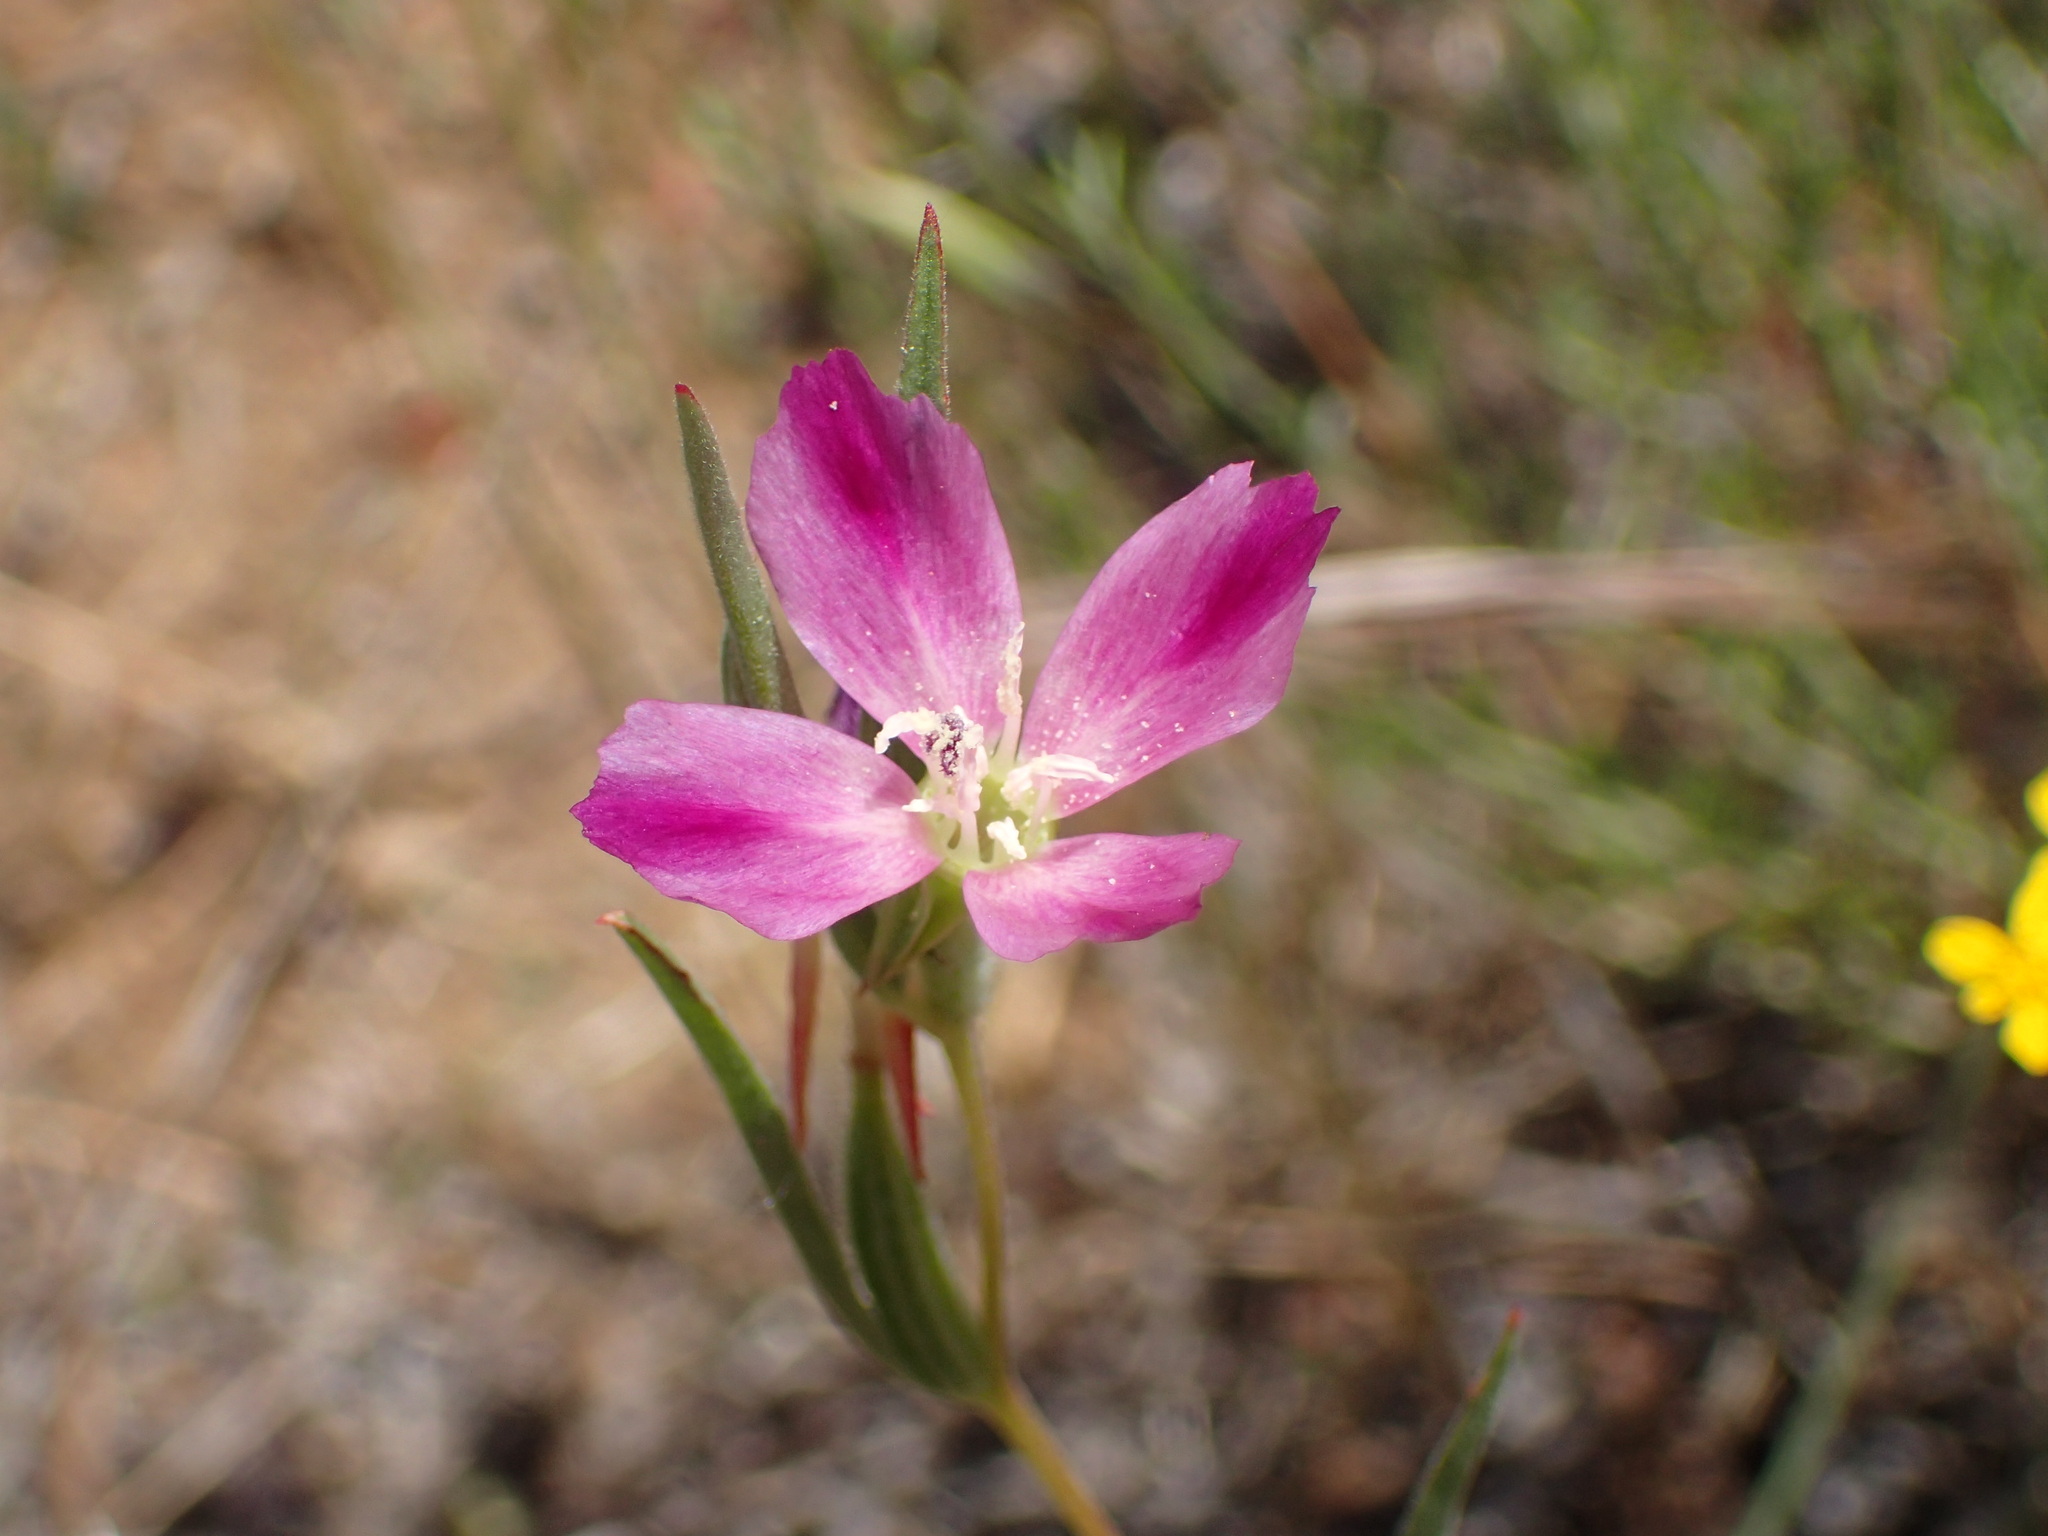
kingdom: Plantae
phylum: Tracheophyta
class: Magnoliopsida
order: Myrtales
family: Onagraceae
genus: Clarkia
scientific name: Clarkia purpurea
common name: Purple clarkia
